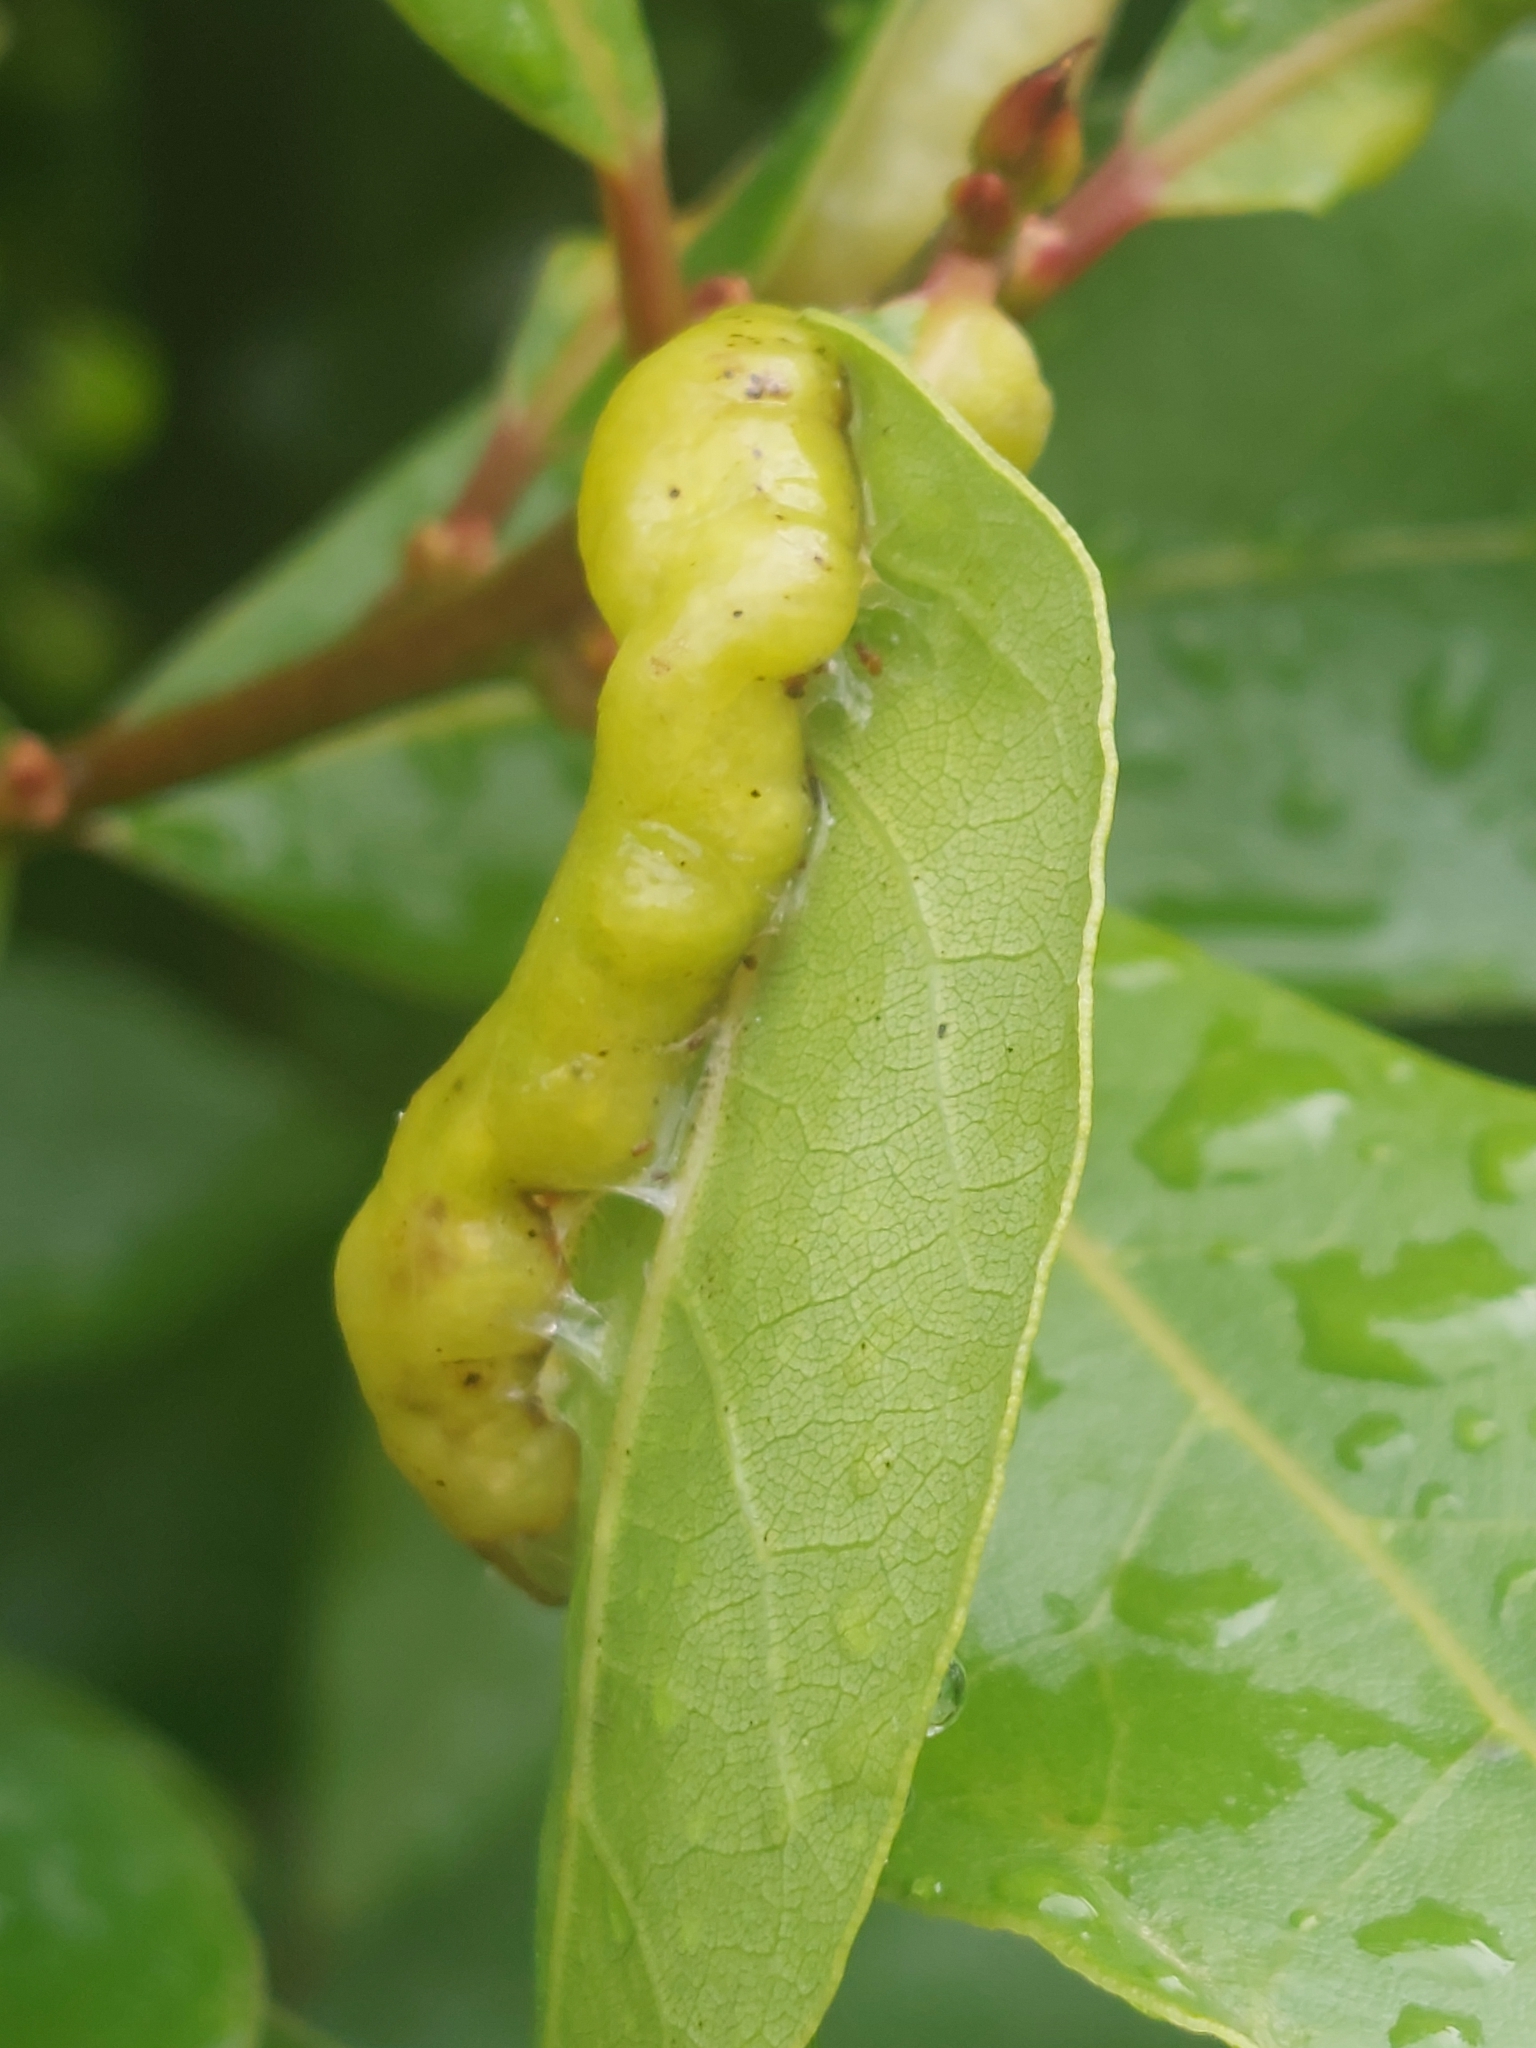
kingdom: Animalia
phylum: Arthropoda
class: Insecta
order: Hemiptera
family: Triozidae
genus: Lauritrioza
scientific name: Lauritrioza alacris
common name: Laurel psyllid
